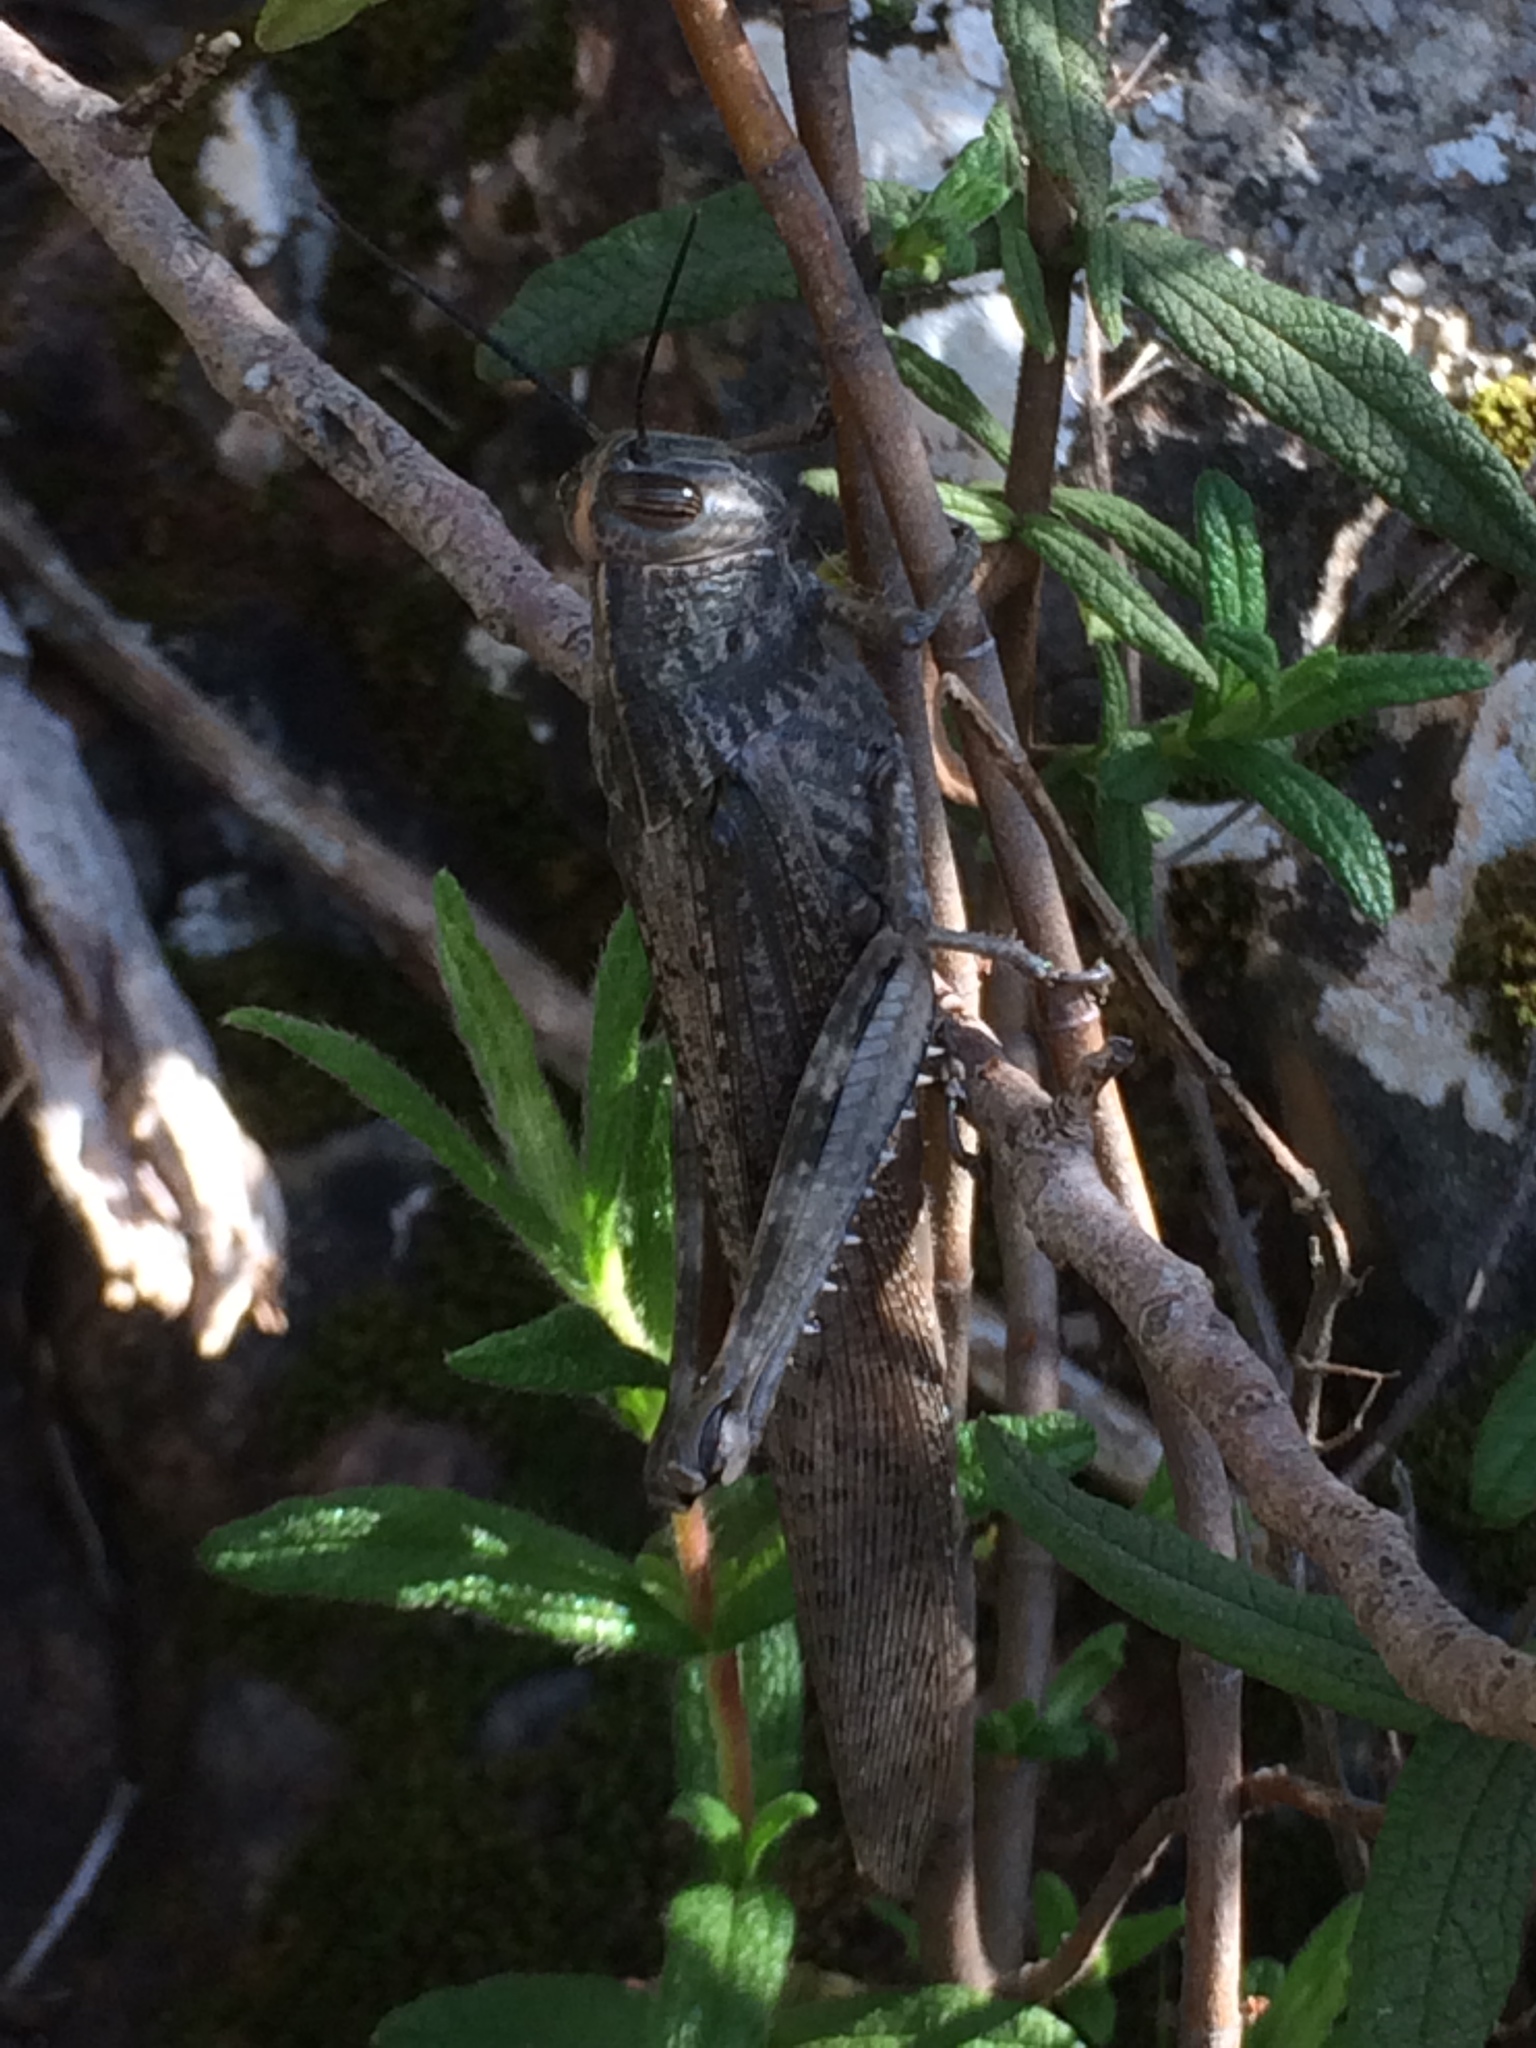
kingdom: Animalia
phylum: Arthropoda
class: Insecta
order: Orthoptera
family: Acrididae
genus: Anacridium
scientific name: Anacridium aegyptium
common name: Egyptian grasshopper
